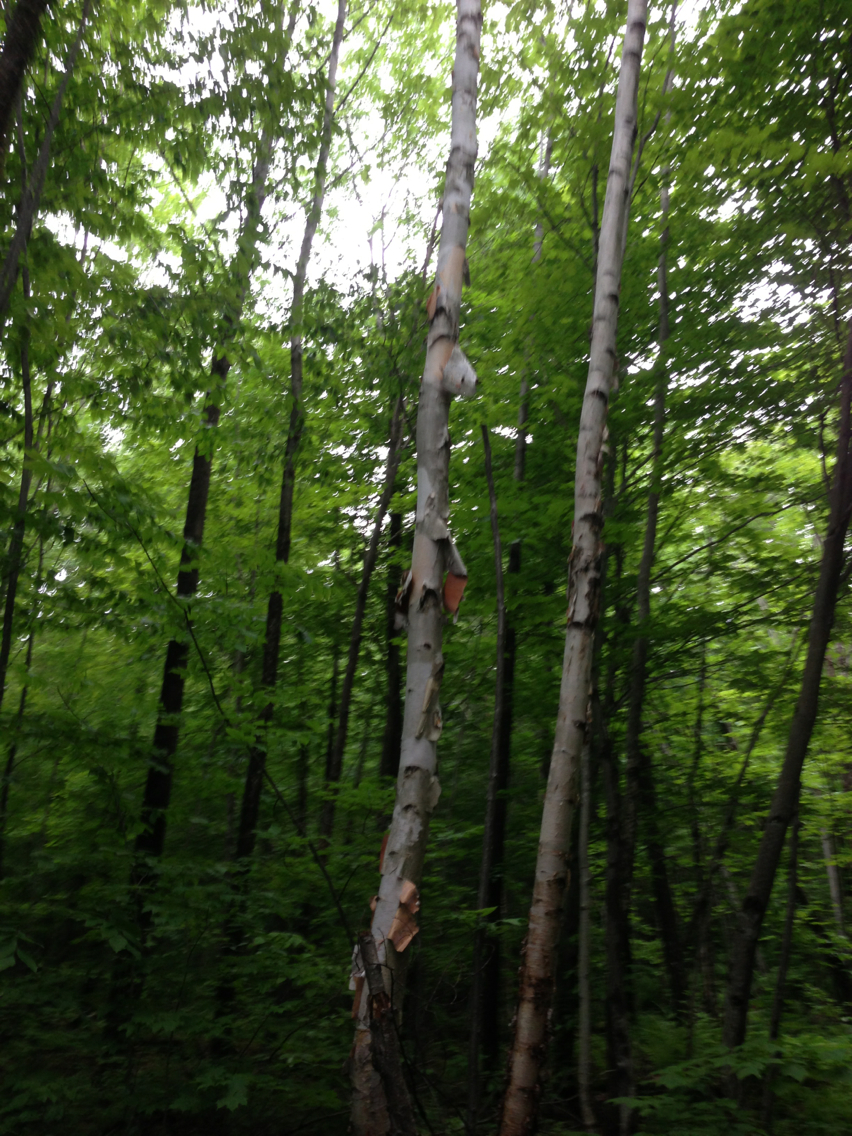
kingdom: Plantae
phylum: Tracheophyta
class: Magnoliopsida
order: Fagales
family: Betulaceae
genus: Betula
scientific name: Betula papyrifera
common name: Paper birch
